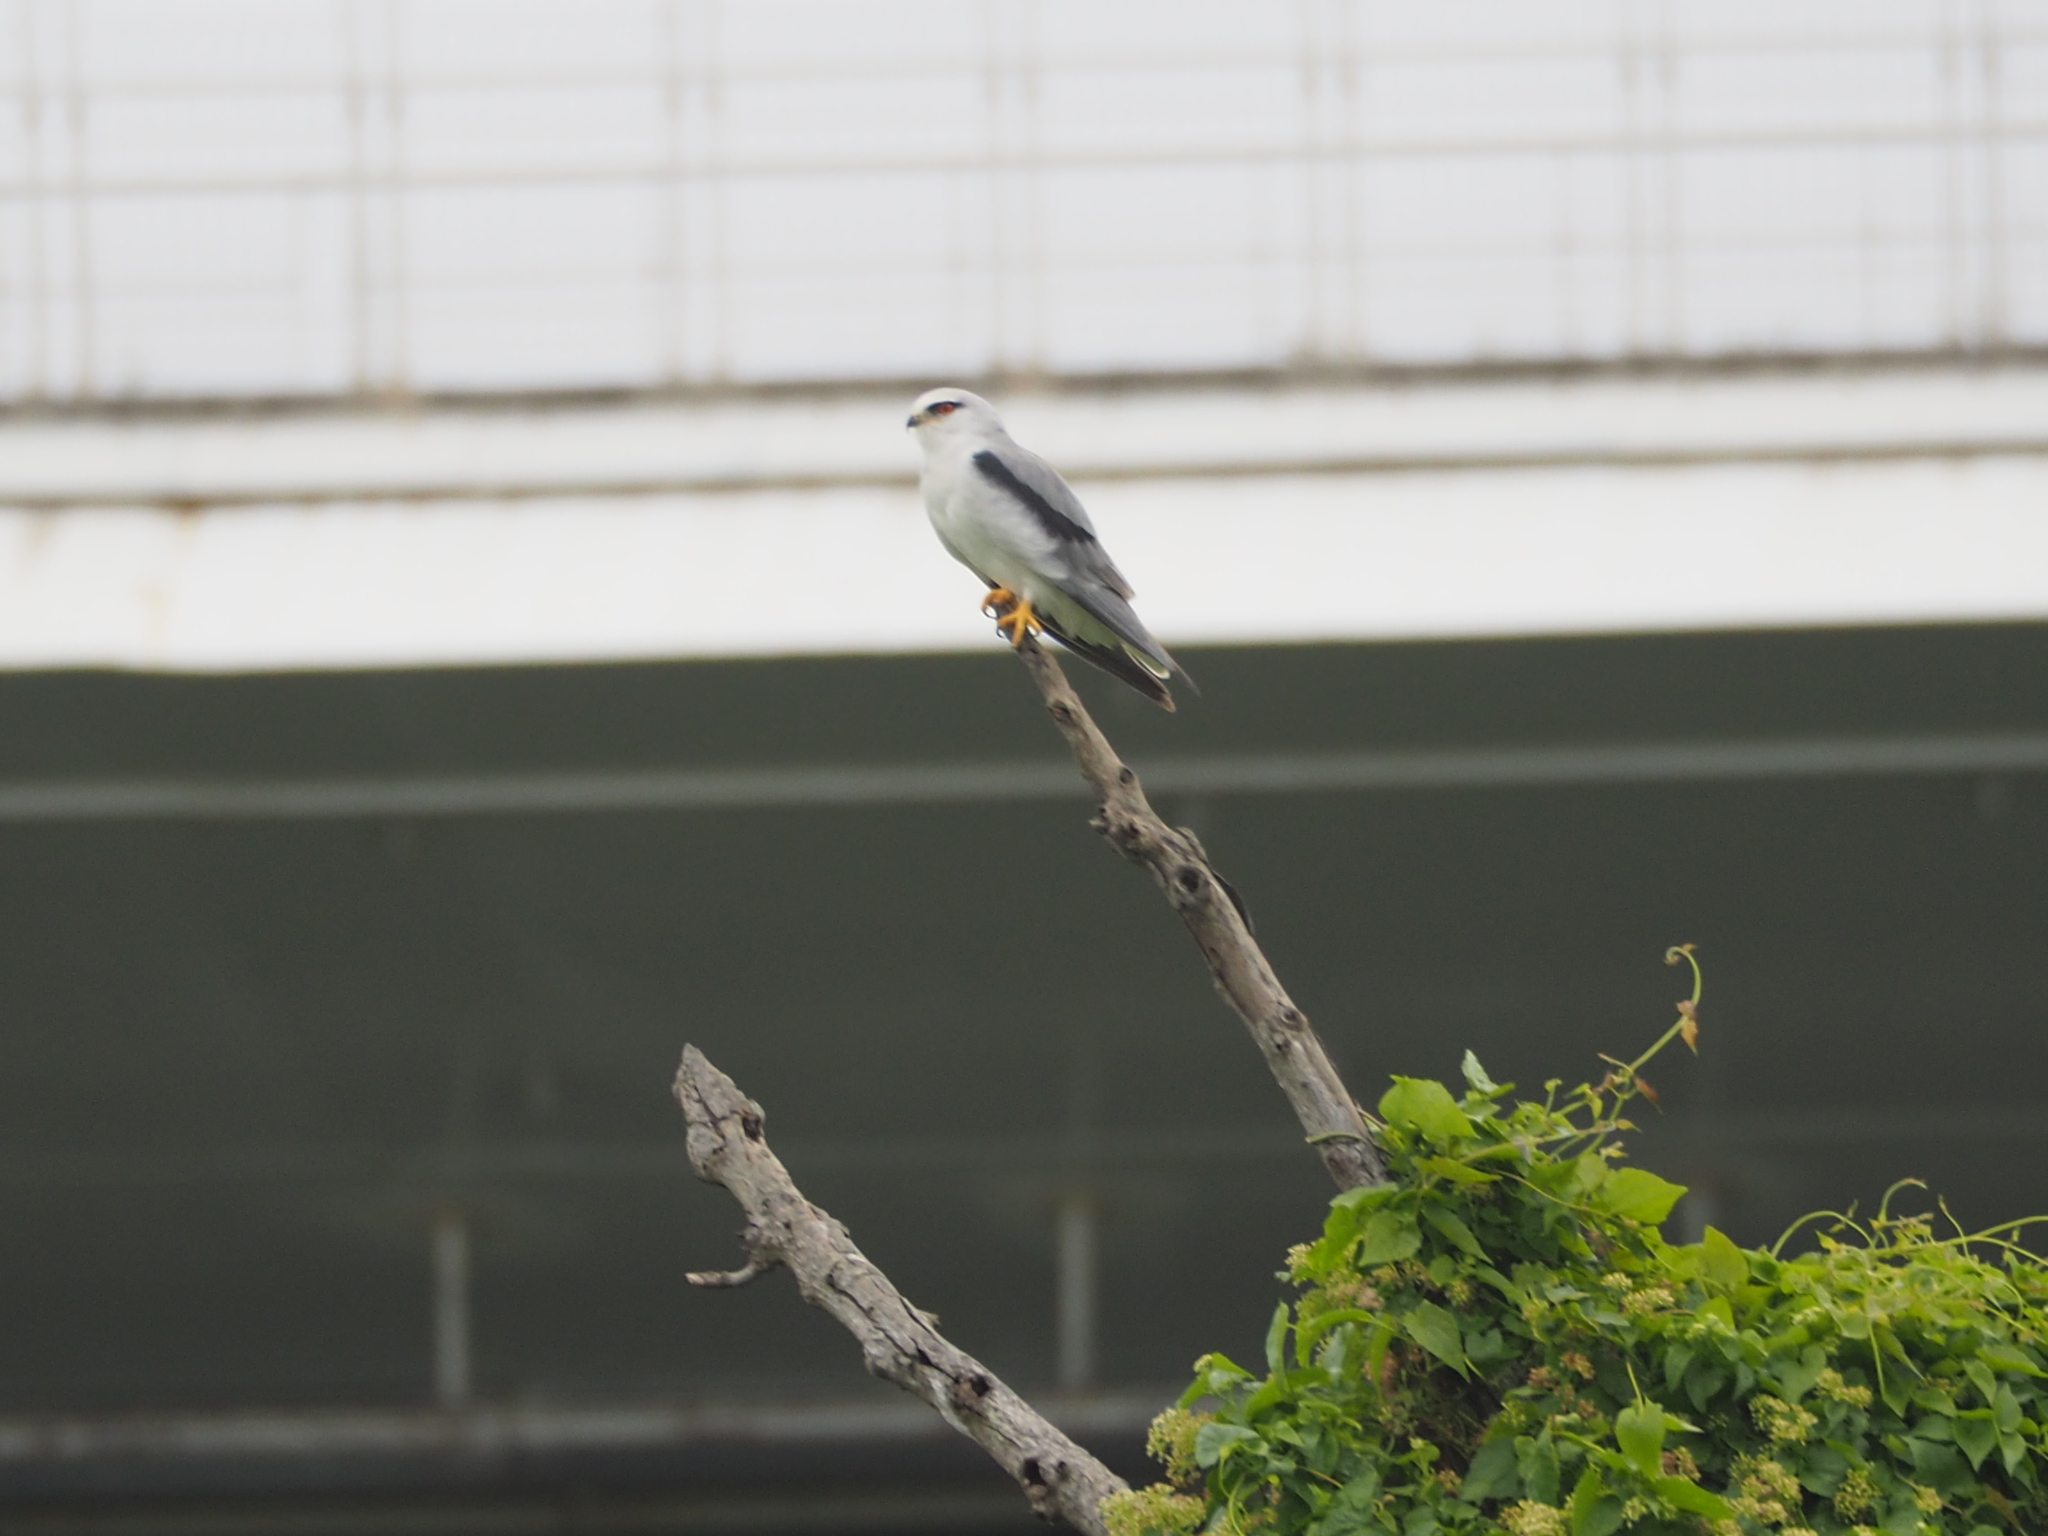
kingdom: Animalia
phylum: Chordata
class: Aves
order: Accipitriformes
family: Accipitridae
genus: Elanus
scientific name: Elanus caeruleus
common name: Black-winged kite
